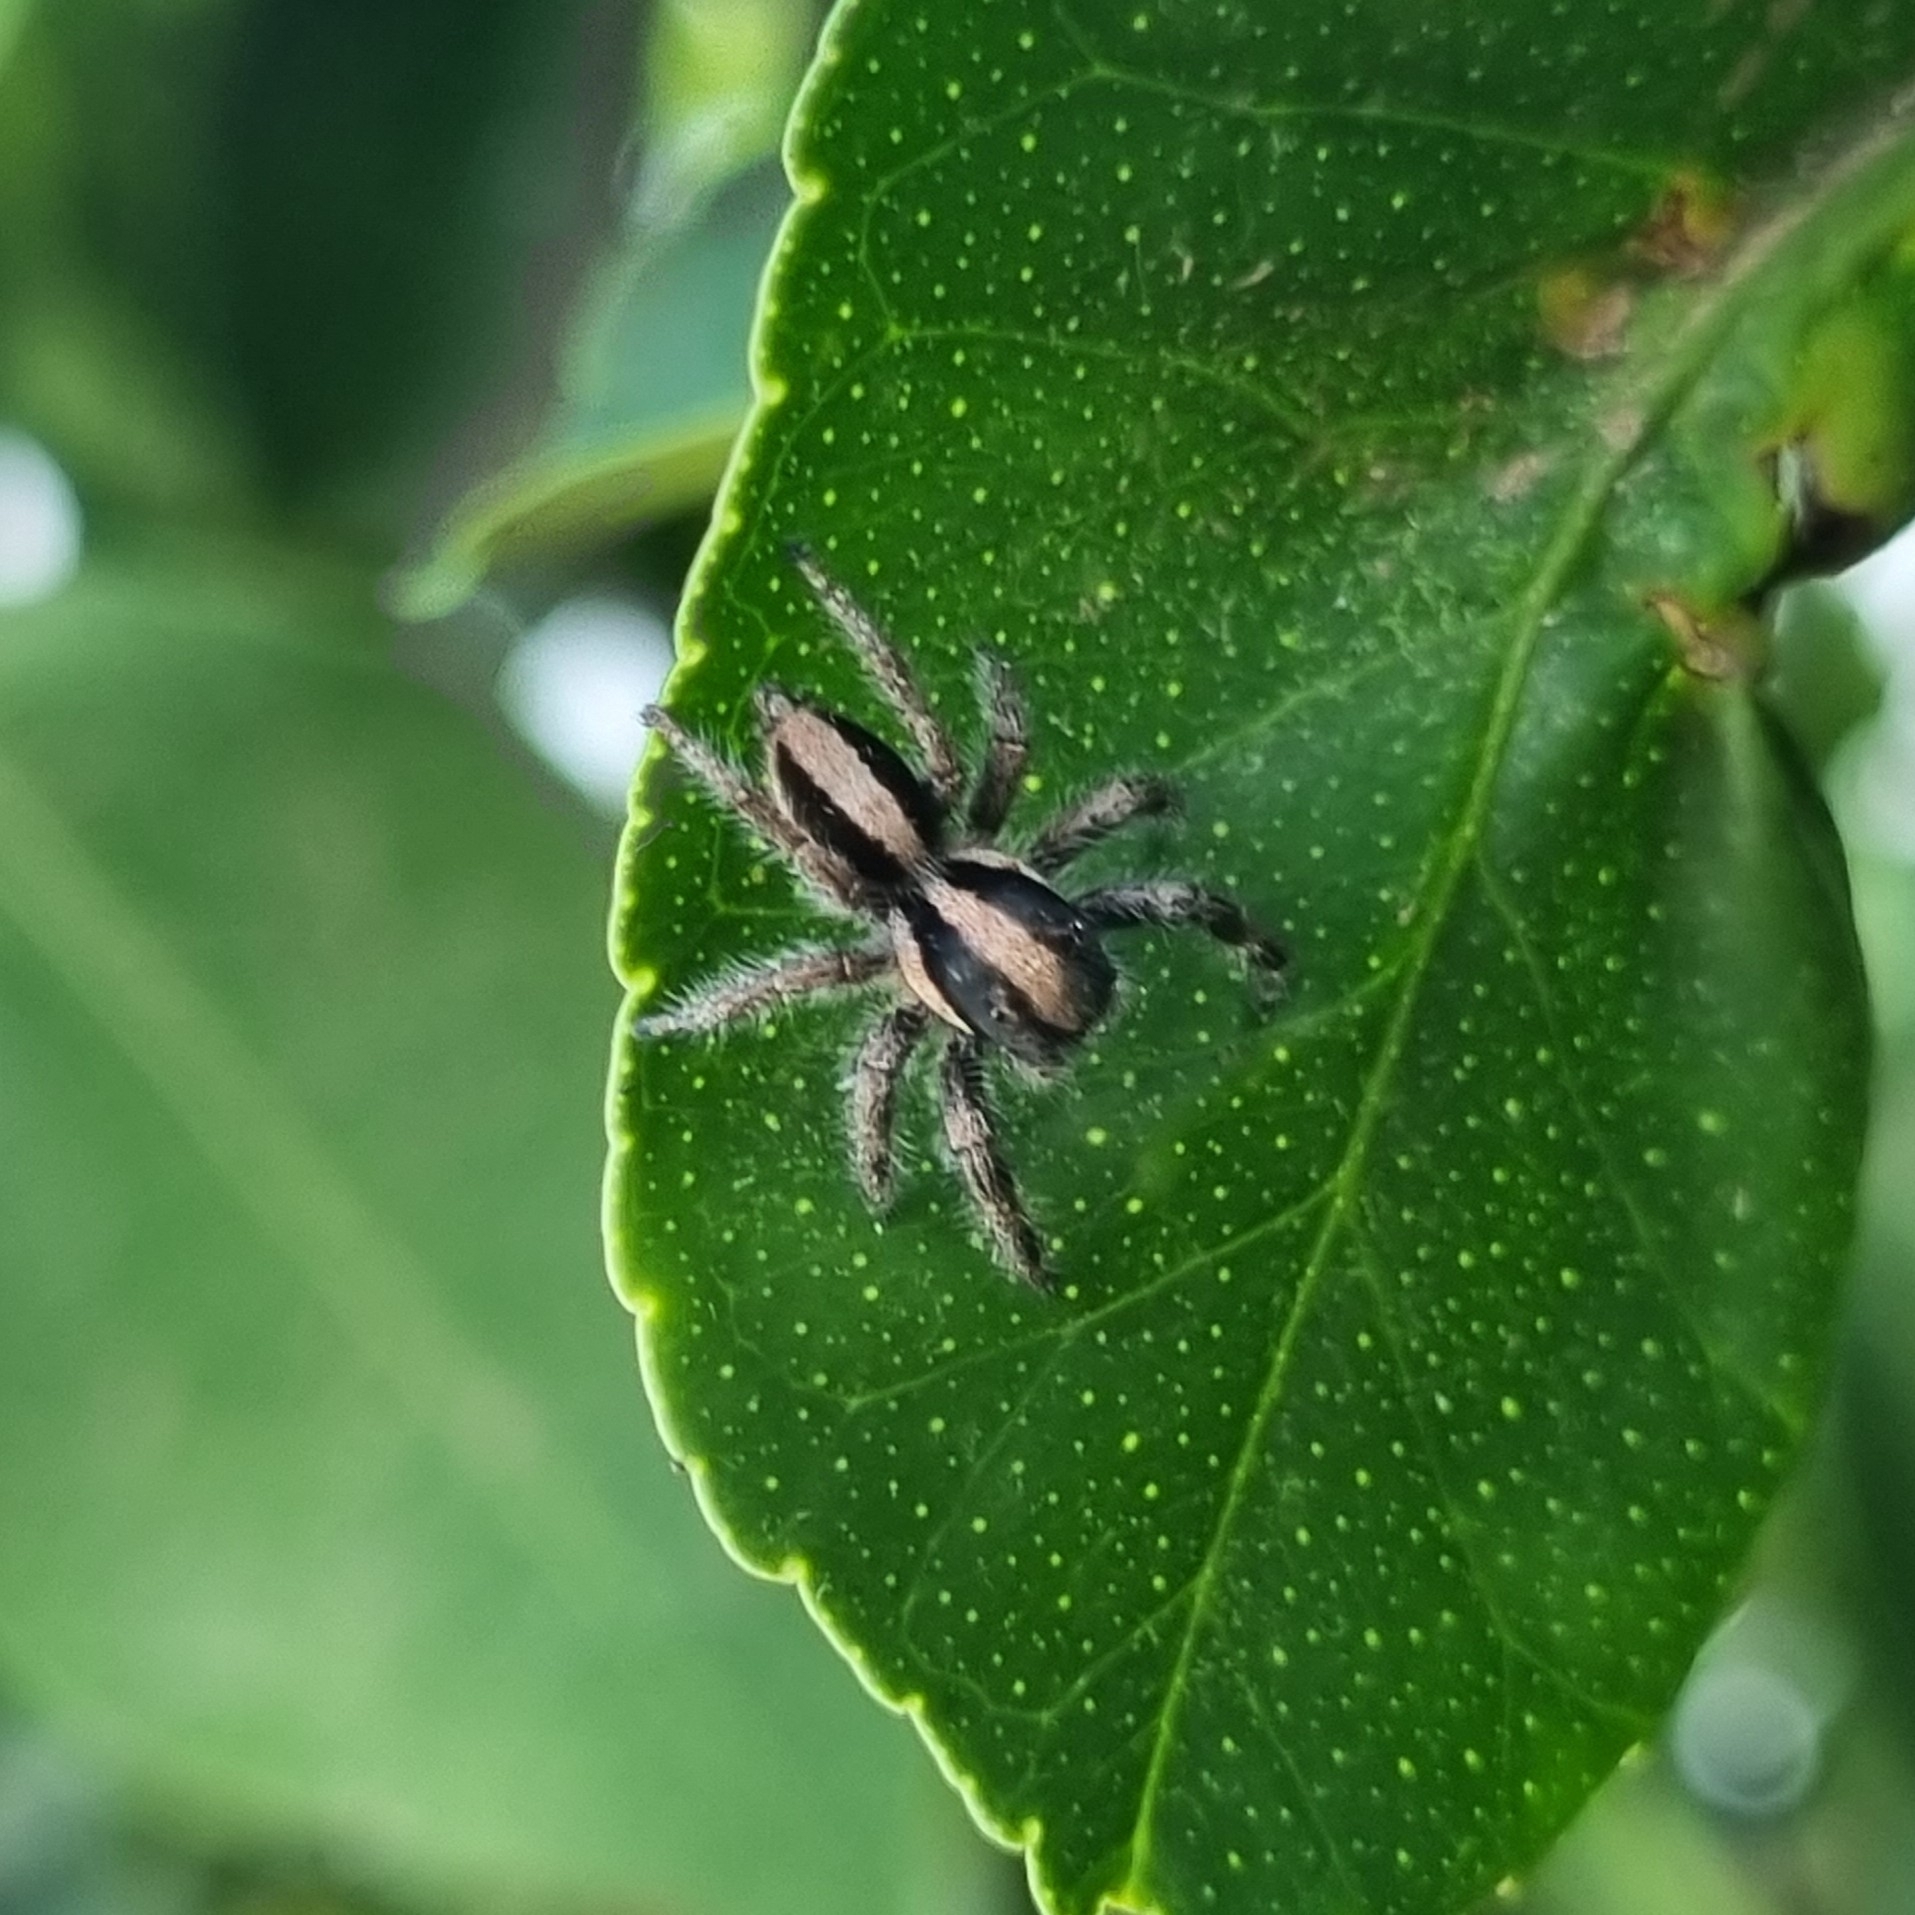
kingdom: Animalia
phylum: Arthropoda
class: Arachnida
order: Araneae
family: Salticidae
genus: Megafreya
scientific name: Megafreya sutrix
